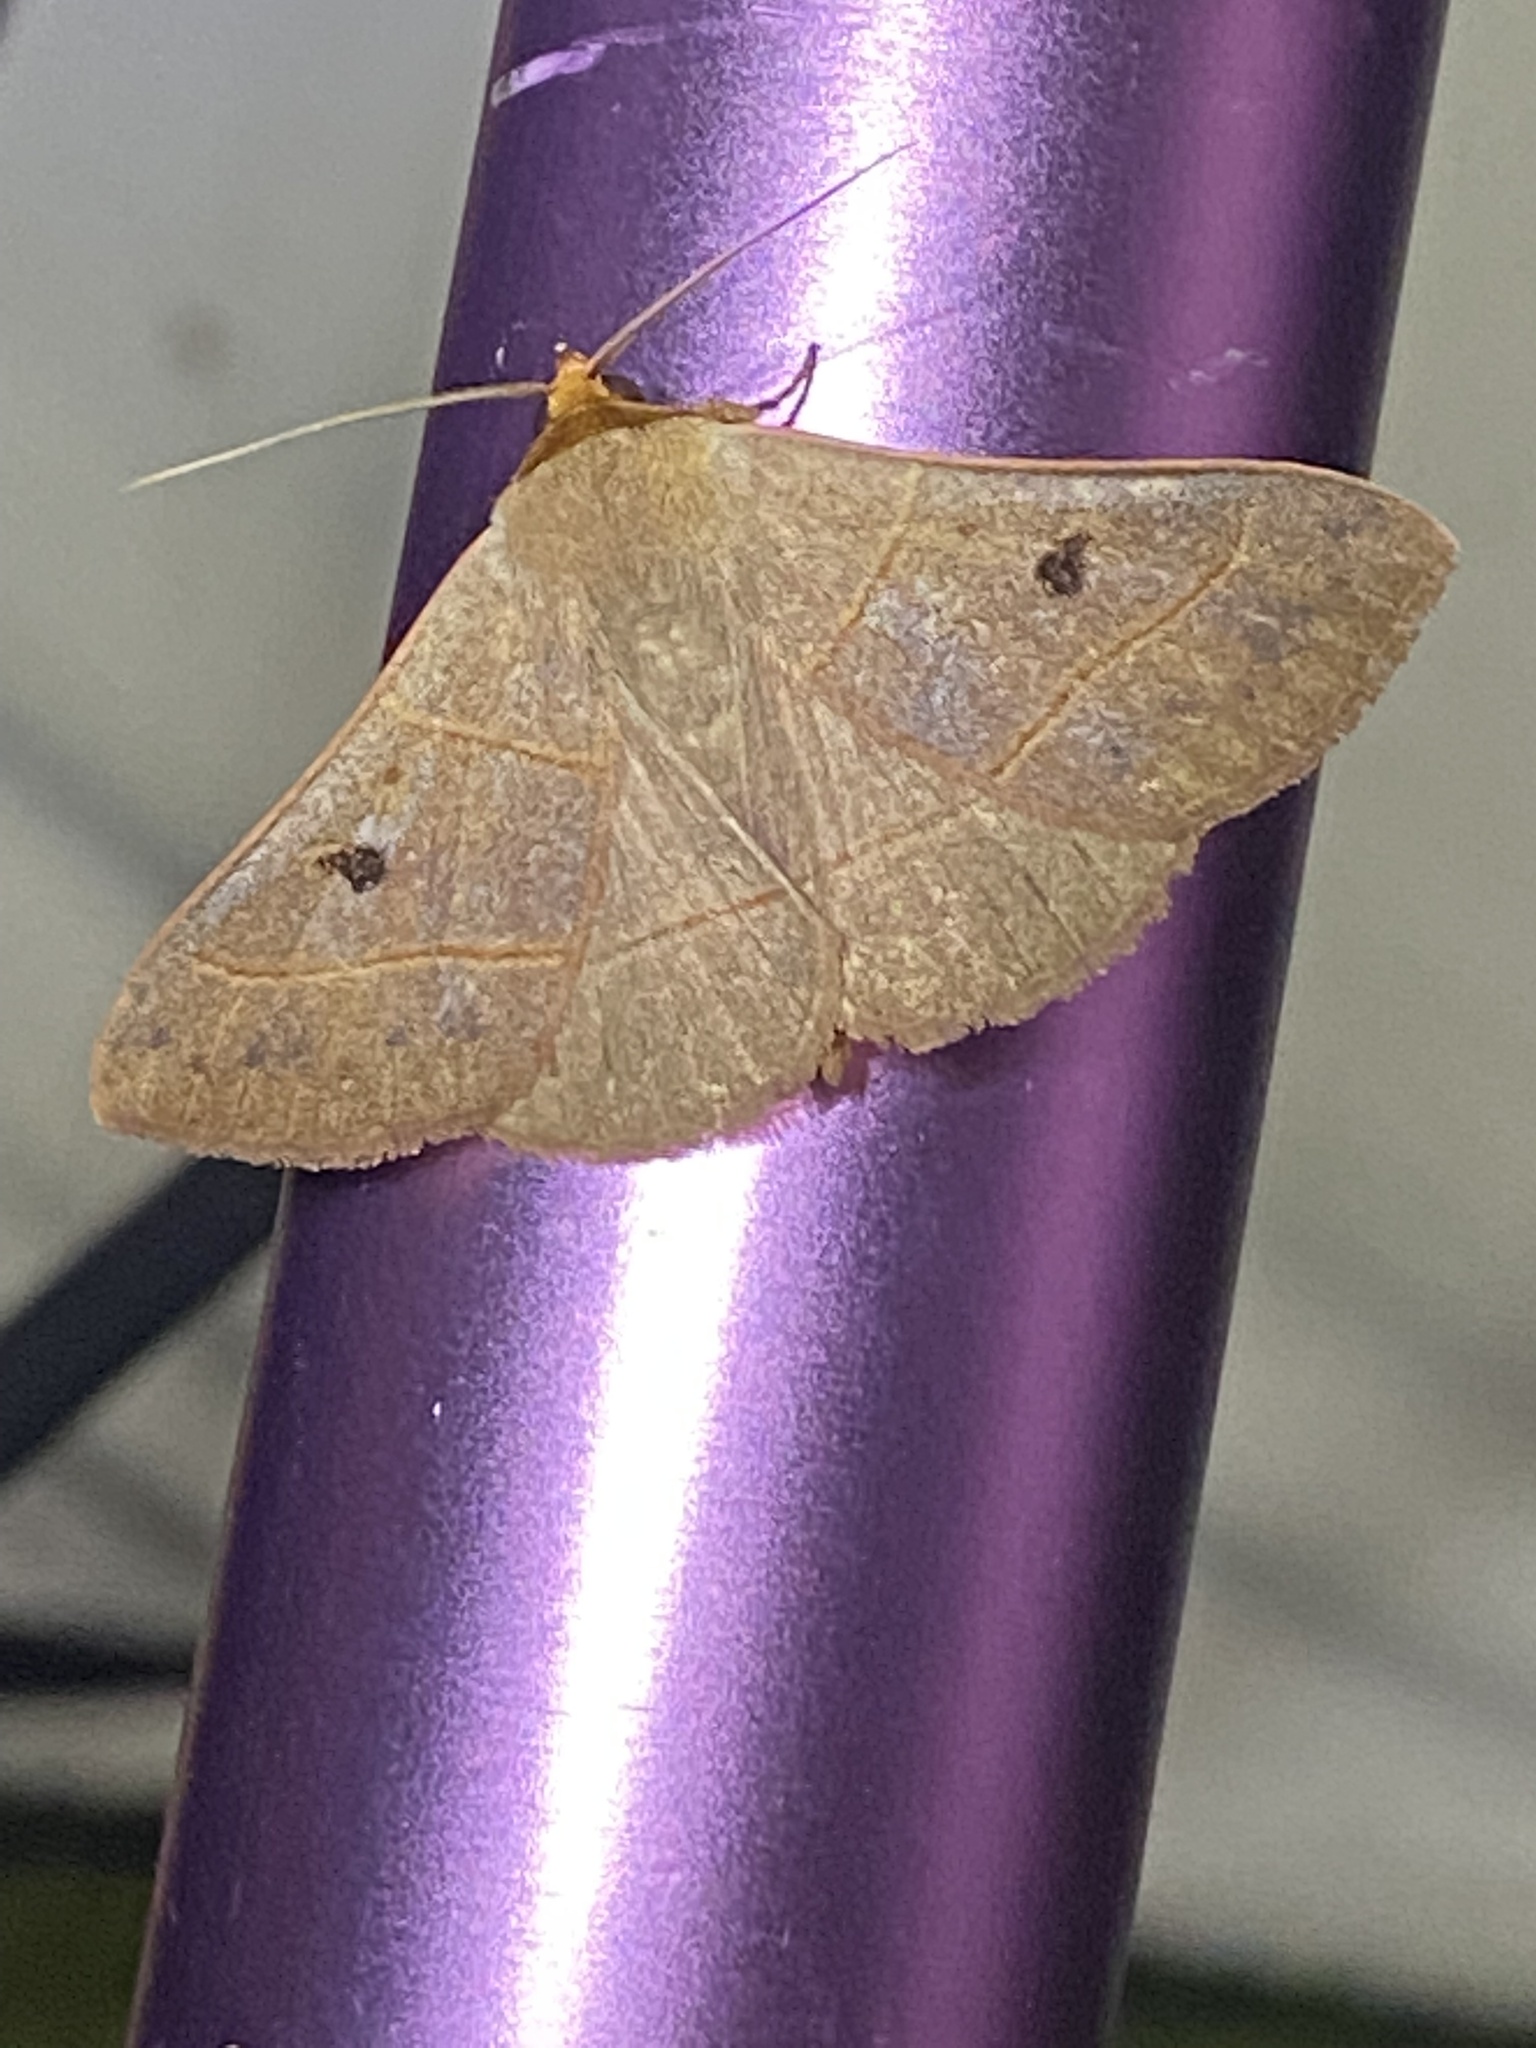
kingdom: Animalia
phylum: Arthropoda
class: Insecta
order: Lepidoptera
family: Erebidae
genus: Panopoda
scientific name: Panopoda rufimargo
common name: Red-lined panopoda moth
